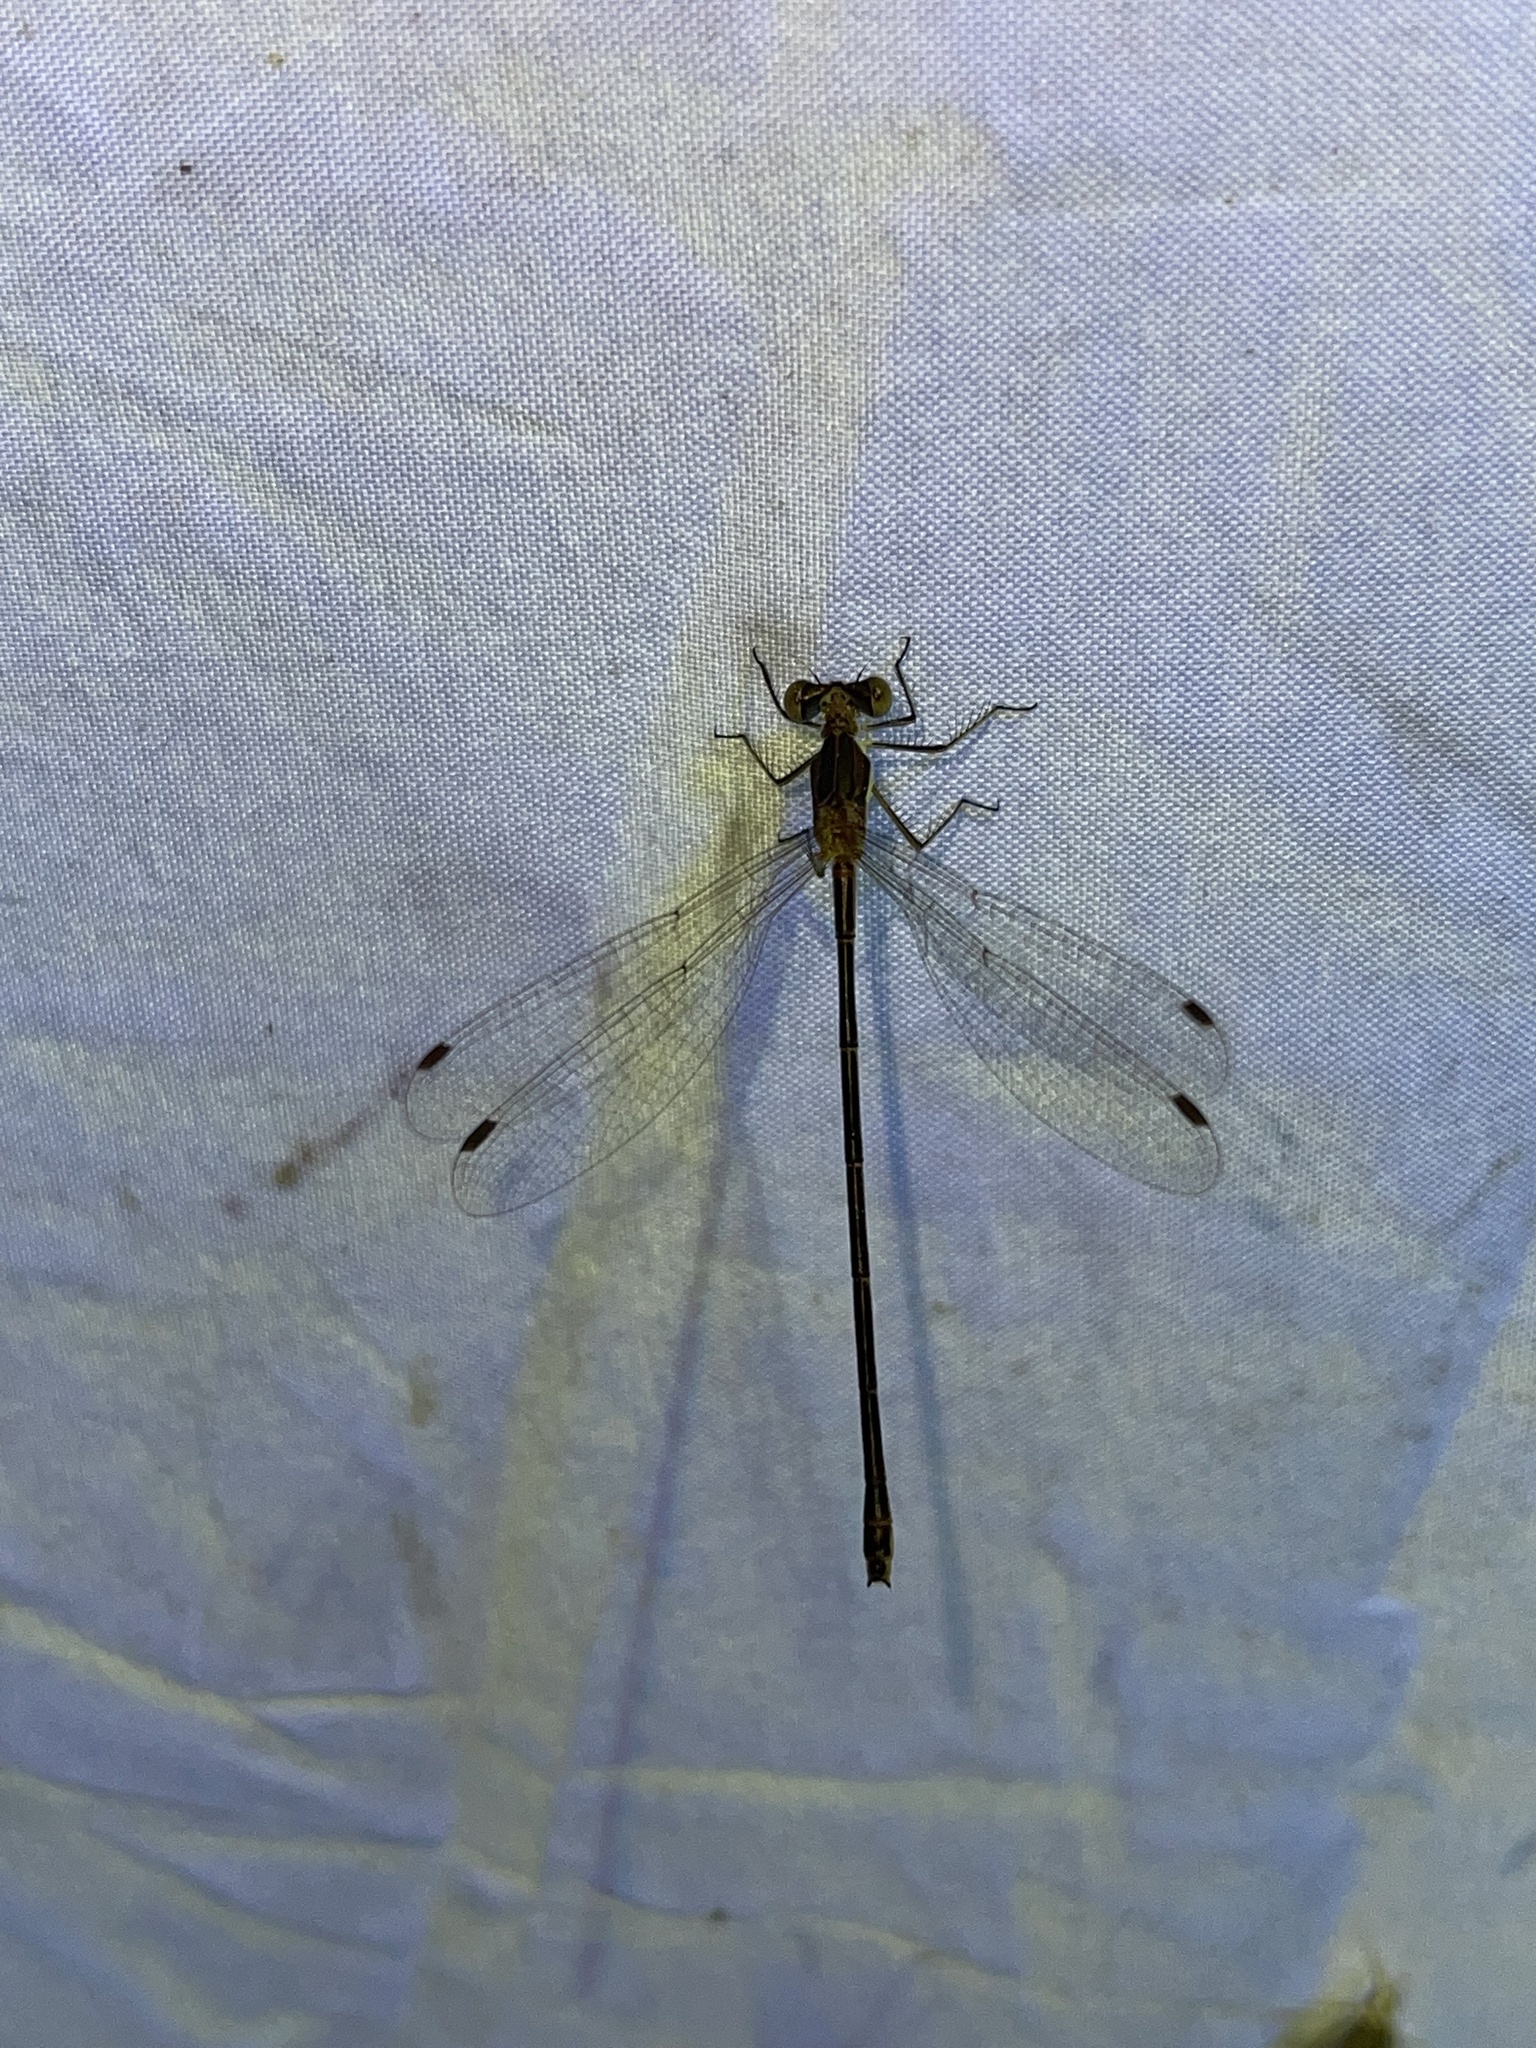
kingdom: Animalia
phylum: Arthropoda
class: Insecta
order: Odonata
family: Lestidae
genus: Lestes
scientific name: Lestes rectangularis
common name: Slender spreadwing
